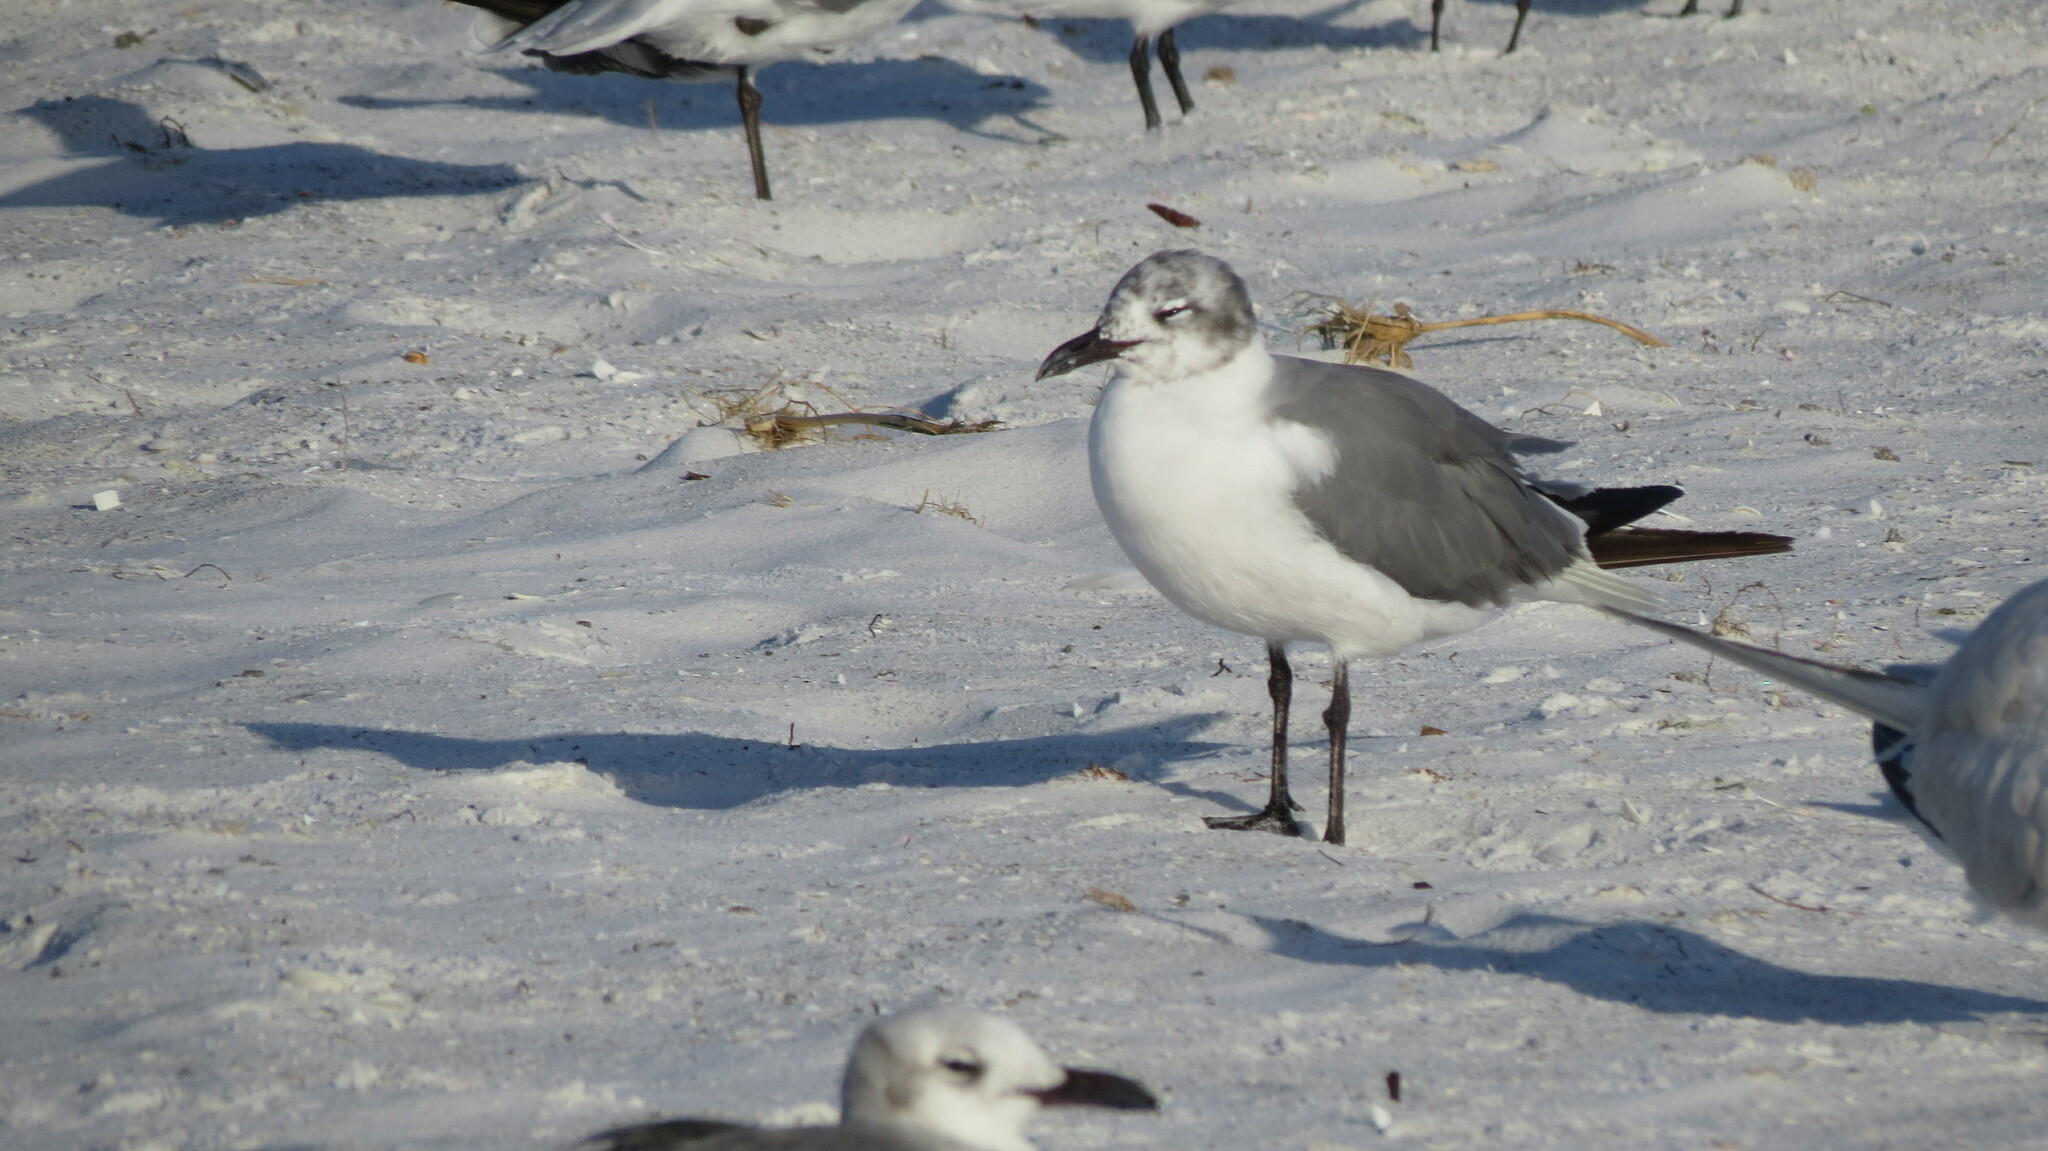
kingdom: Animalia
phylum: Chordata
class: Aves
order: Charadriiformes
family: Laridae
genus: Leucophaeus
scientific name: Leucophaeus atricilla
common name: Laughing gull
